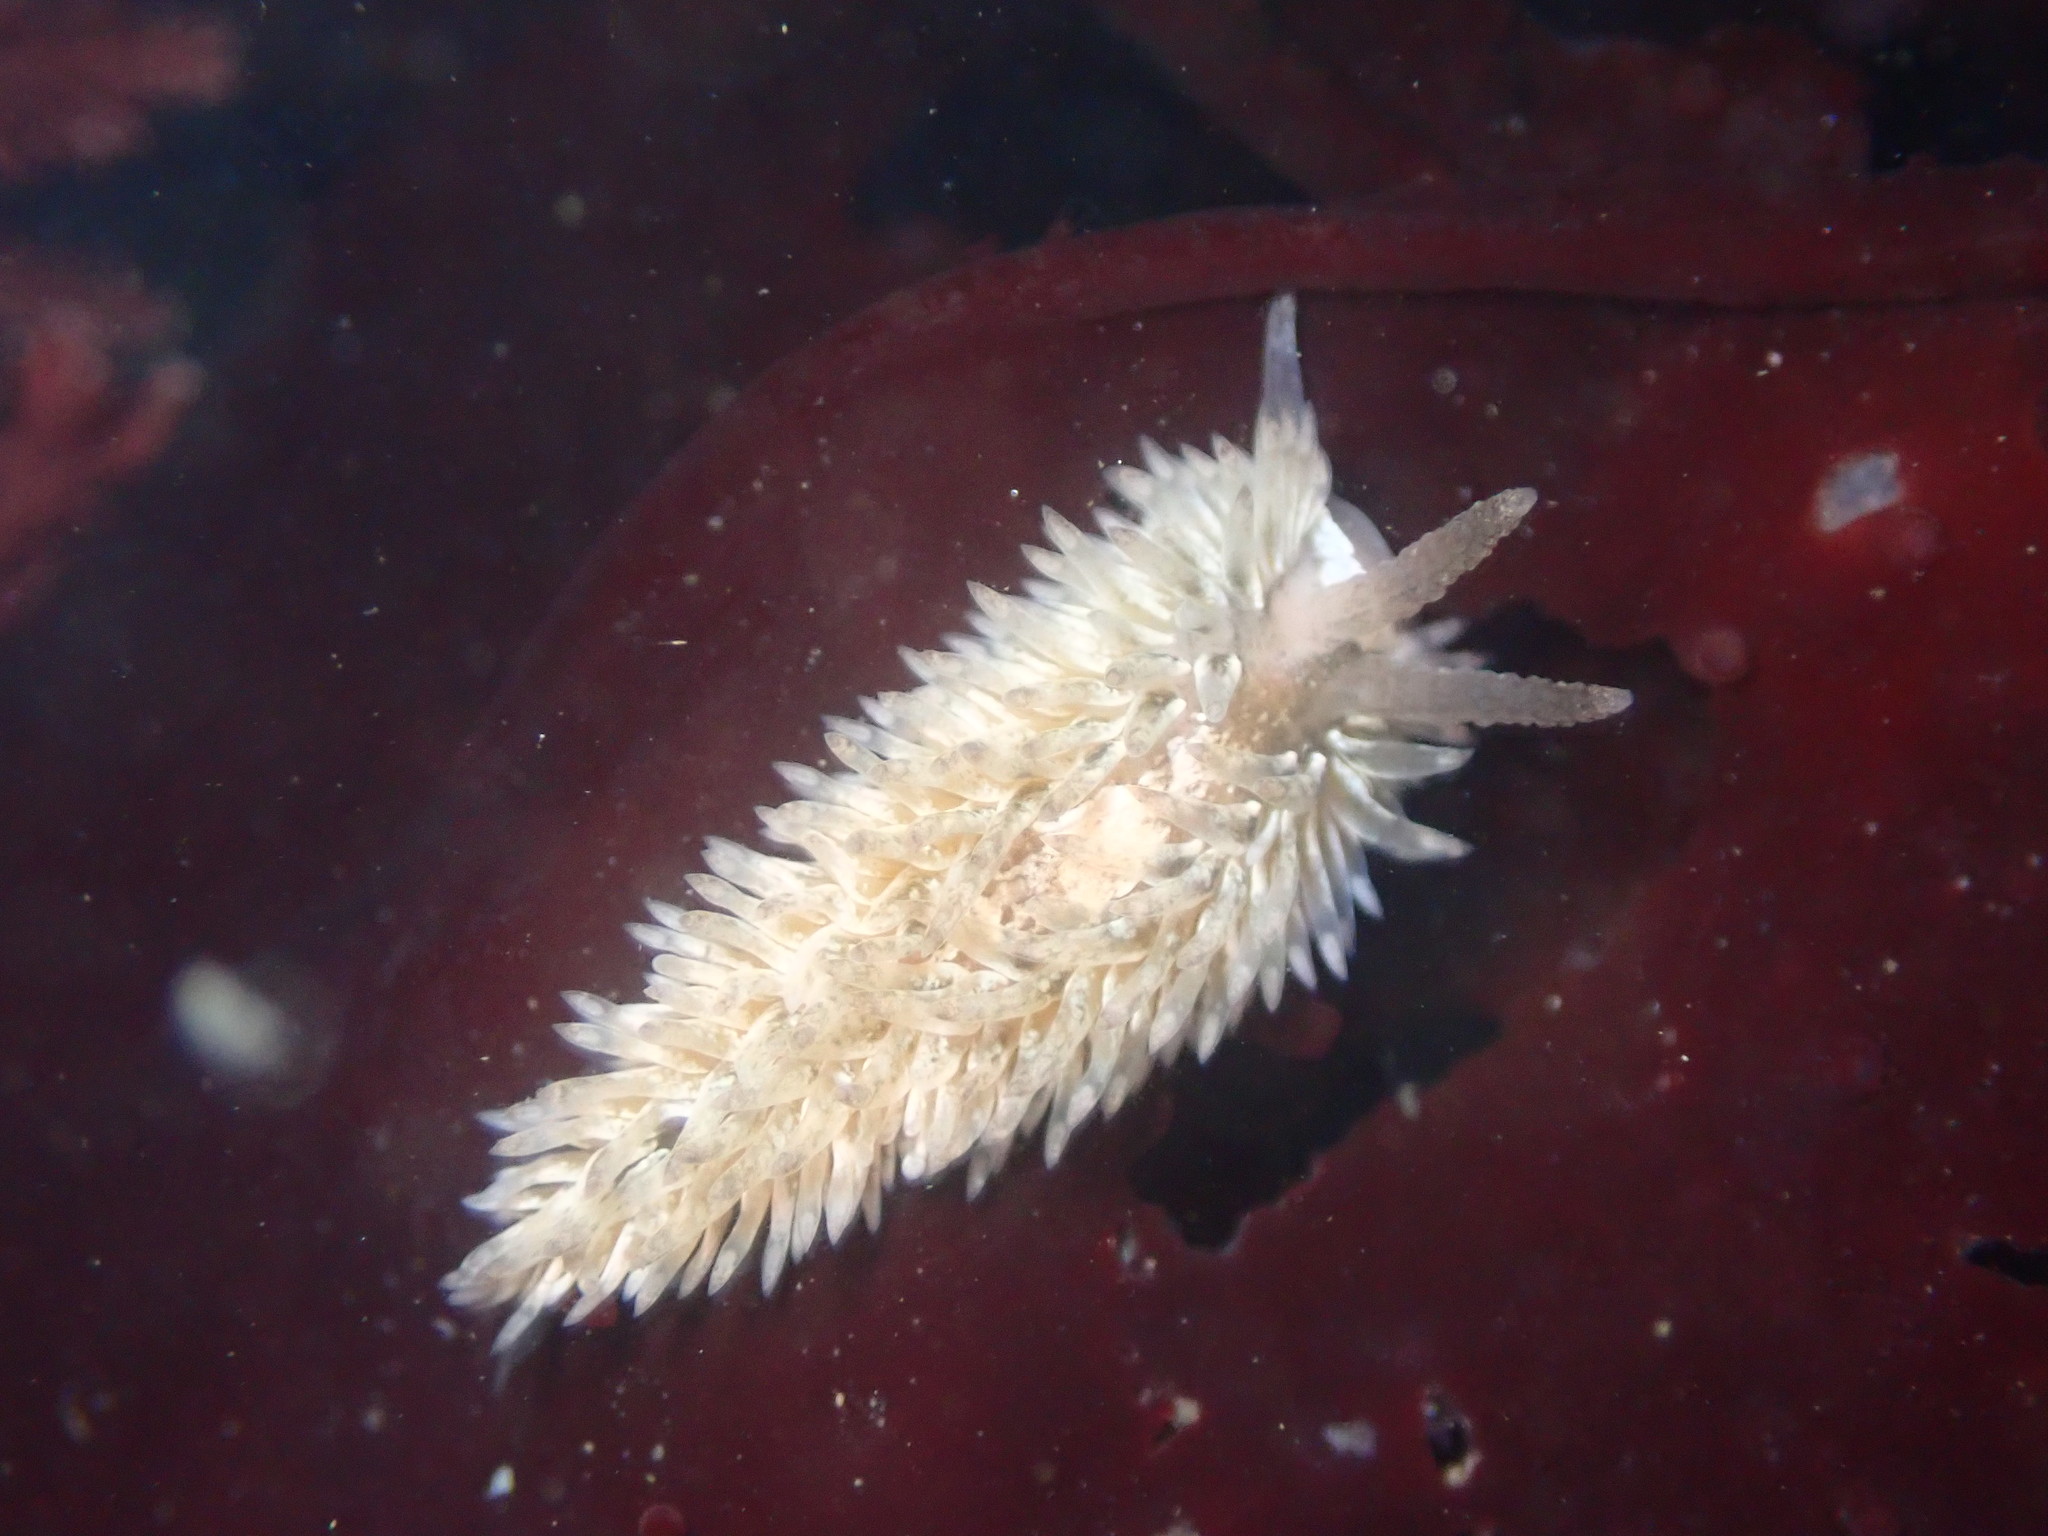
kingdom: Animalia
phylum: Mollusca
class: Gastropoda
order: Nudibranchia
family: Aeolidiidae
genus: Aeolidia
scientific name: Aeolidia loui
